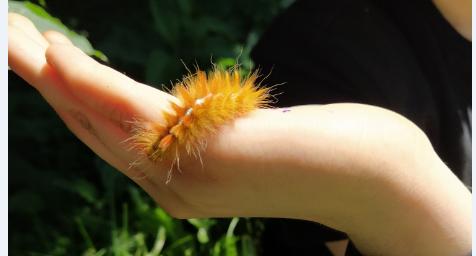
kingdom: Animalia
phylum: Arthropoda
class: Insecta
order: Lepidoptera
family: Noctuidae
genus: Acronicta
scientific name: Acronicta aceris
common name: Sycamore
